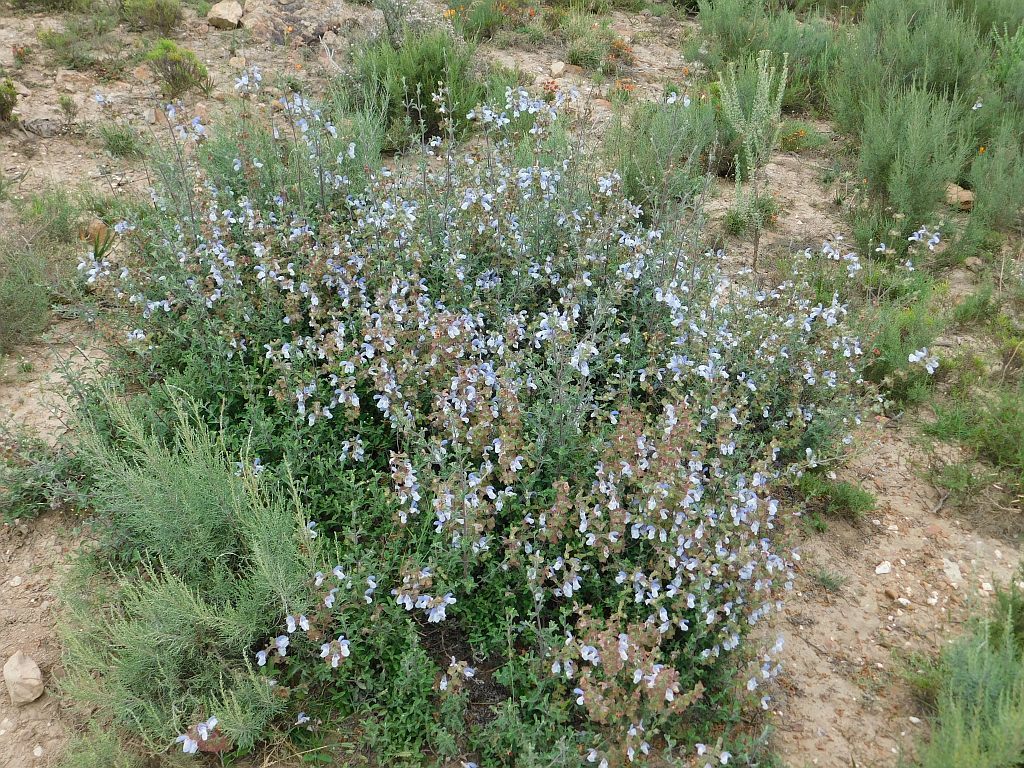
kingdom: Plantae
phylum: Tracheophyta
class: Magnoliopsida
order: Lamiales
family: Lamiaceae
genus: Salvia
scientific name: Salvia africana
